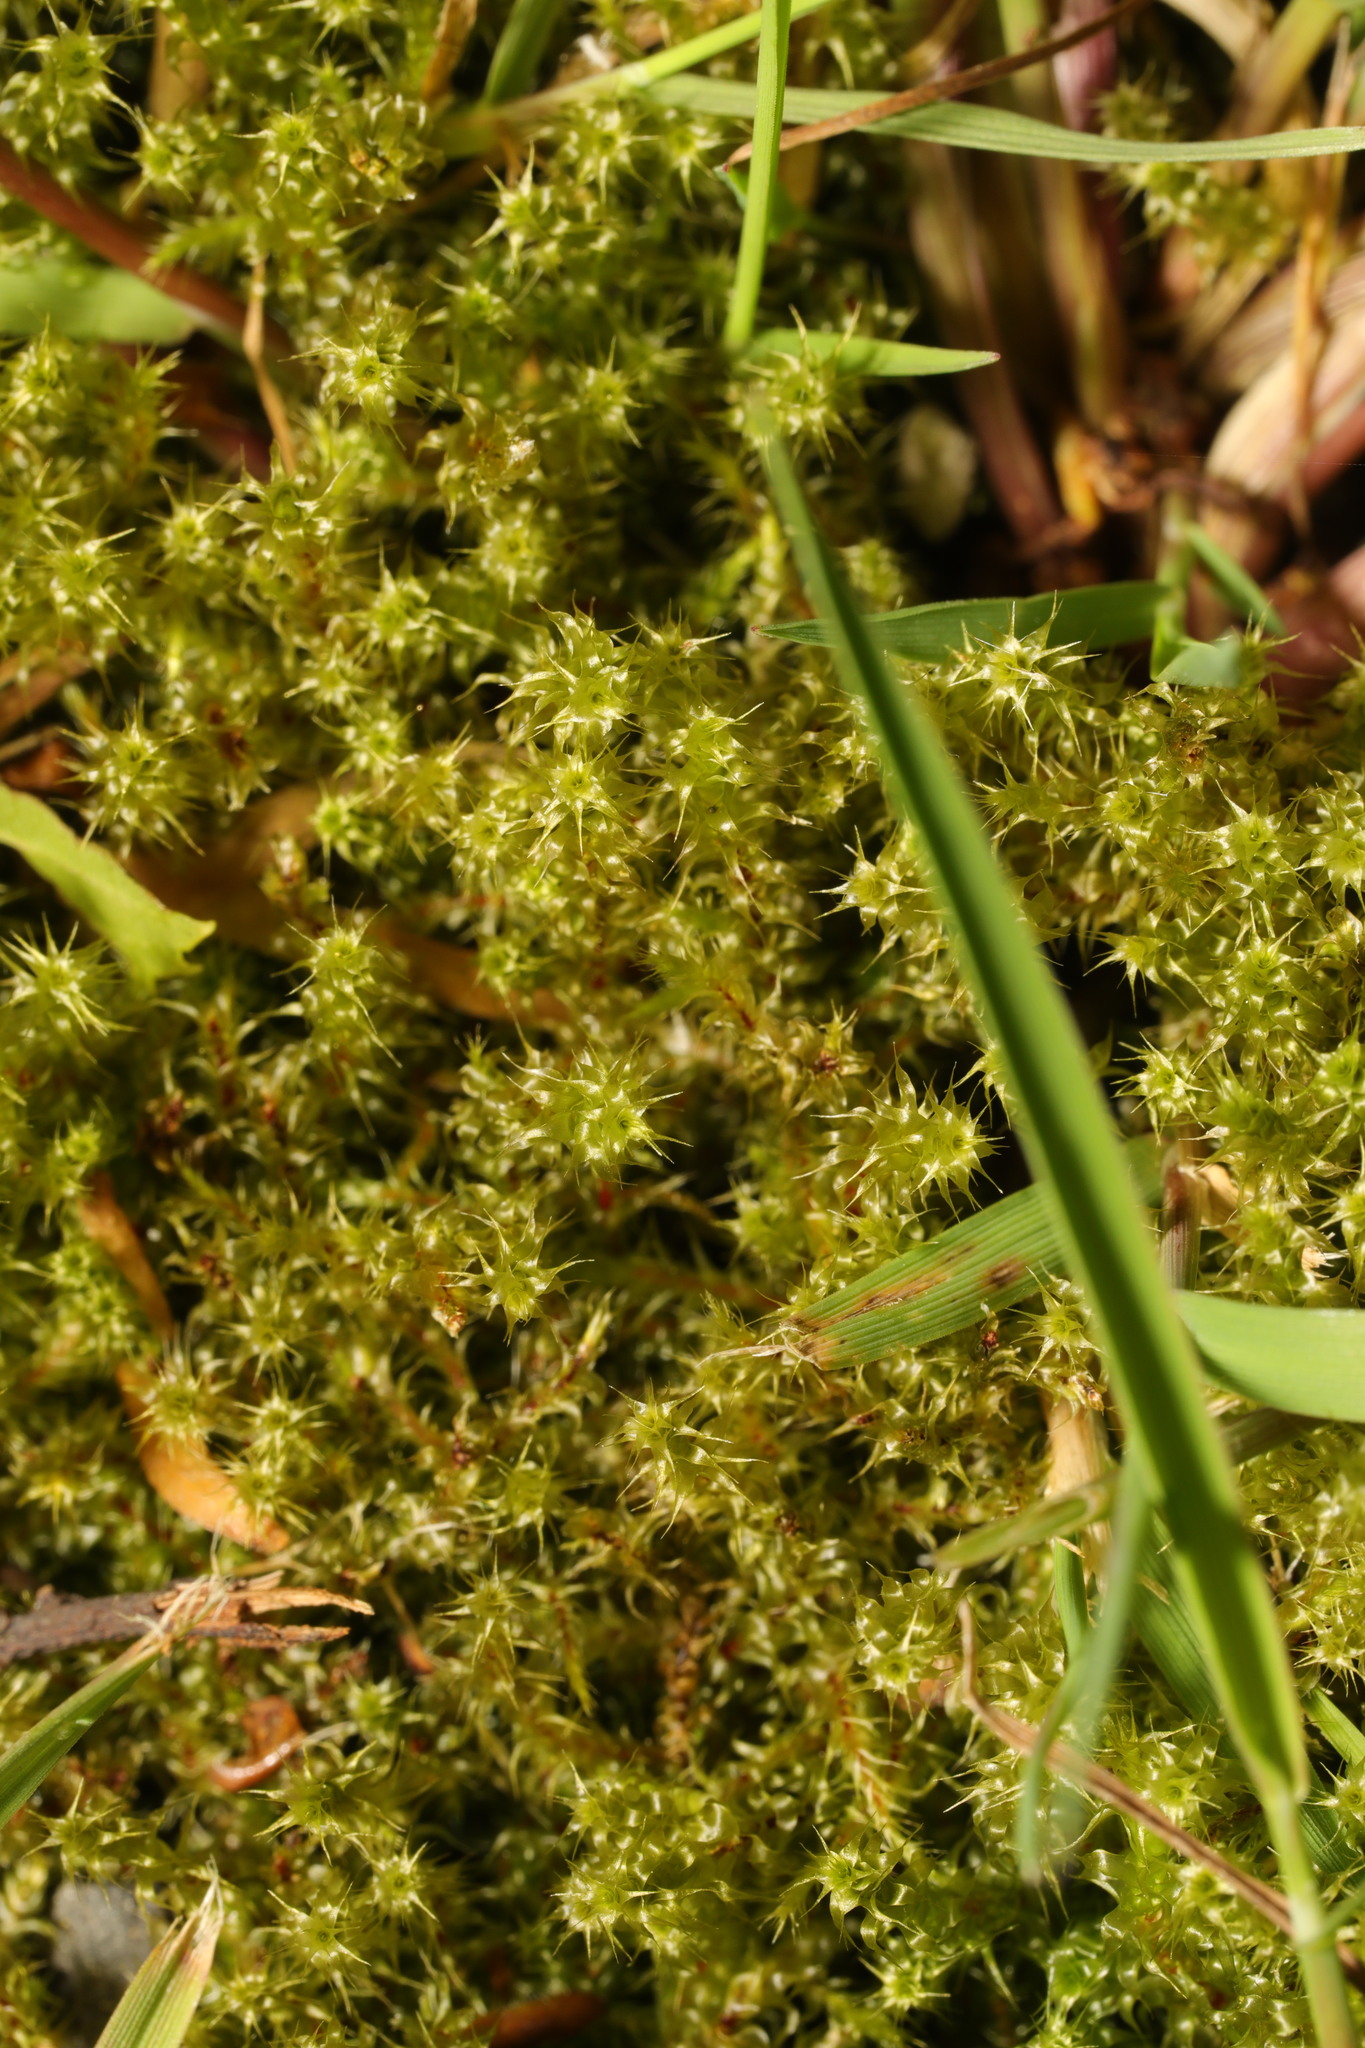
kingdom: Plantae
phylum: Bryophyta
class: Bryopsida
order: Hypnales
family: Hylocomiaceae
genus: Rhytidiadelphus
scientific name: Rhytidiadelphus squarrosus
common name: Springy turf-moss
